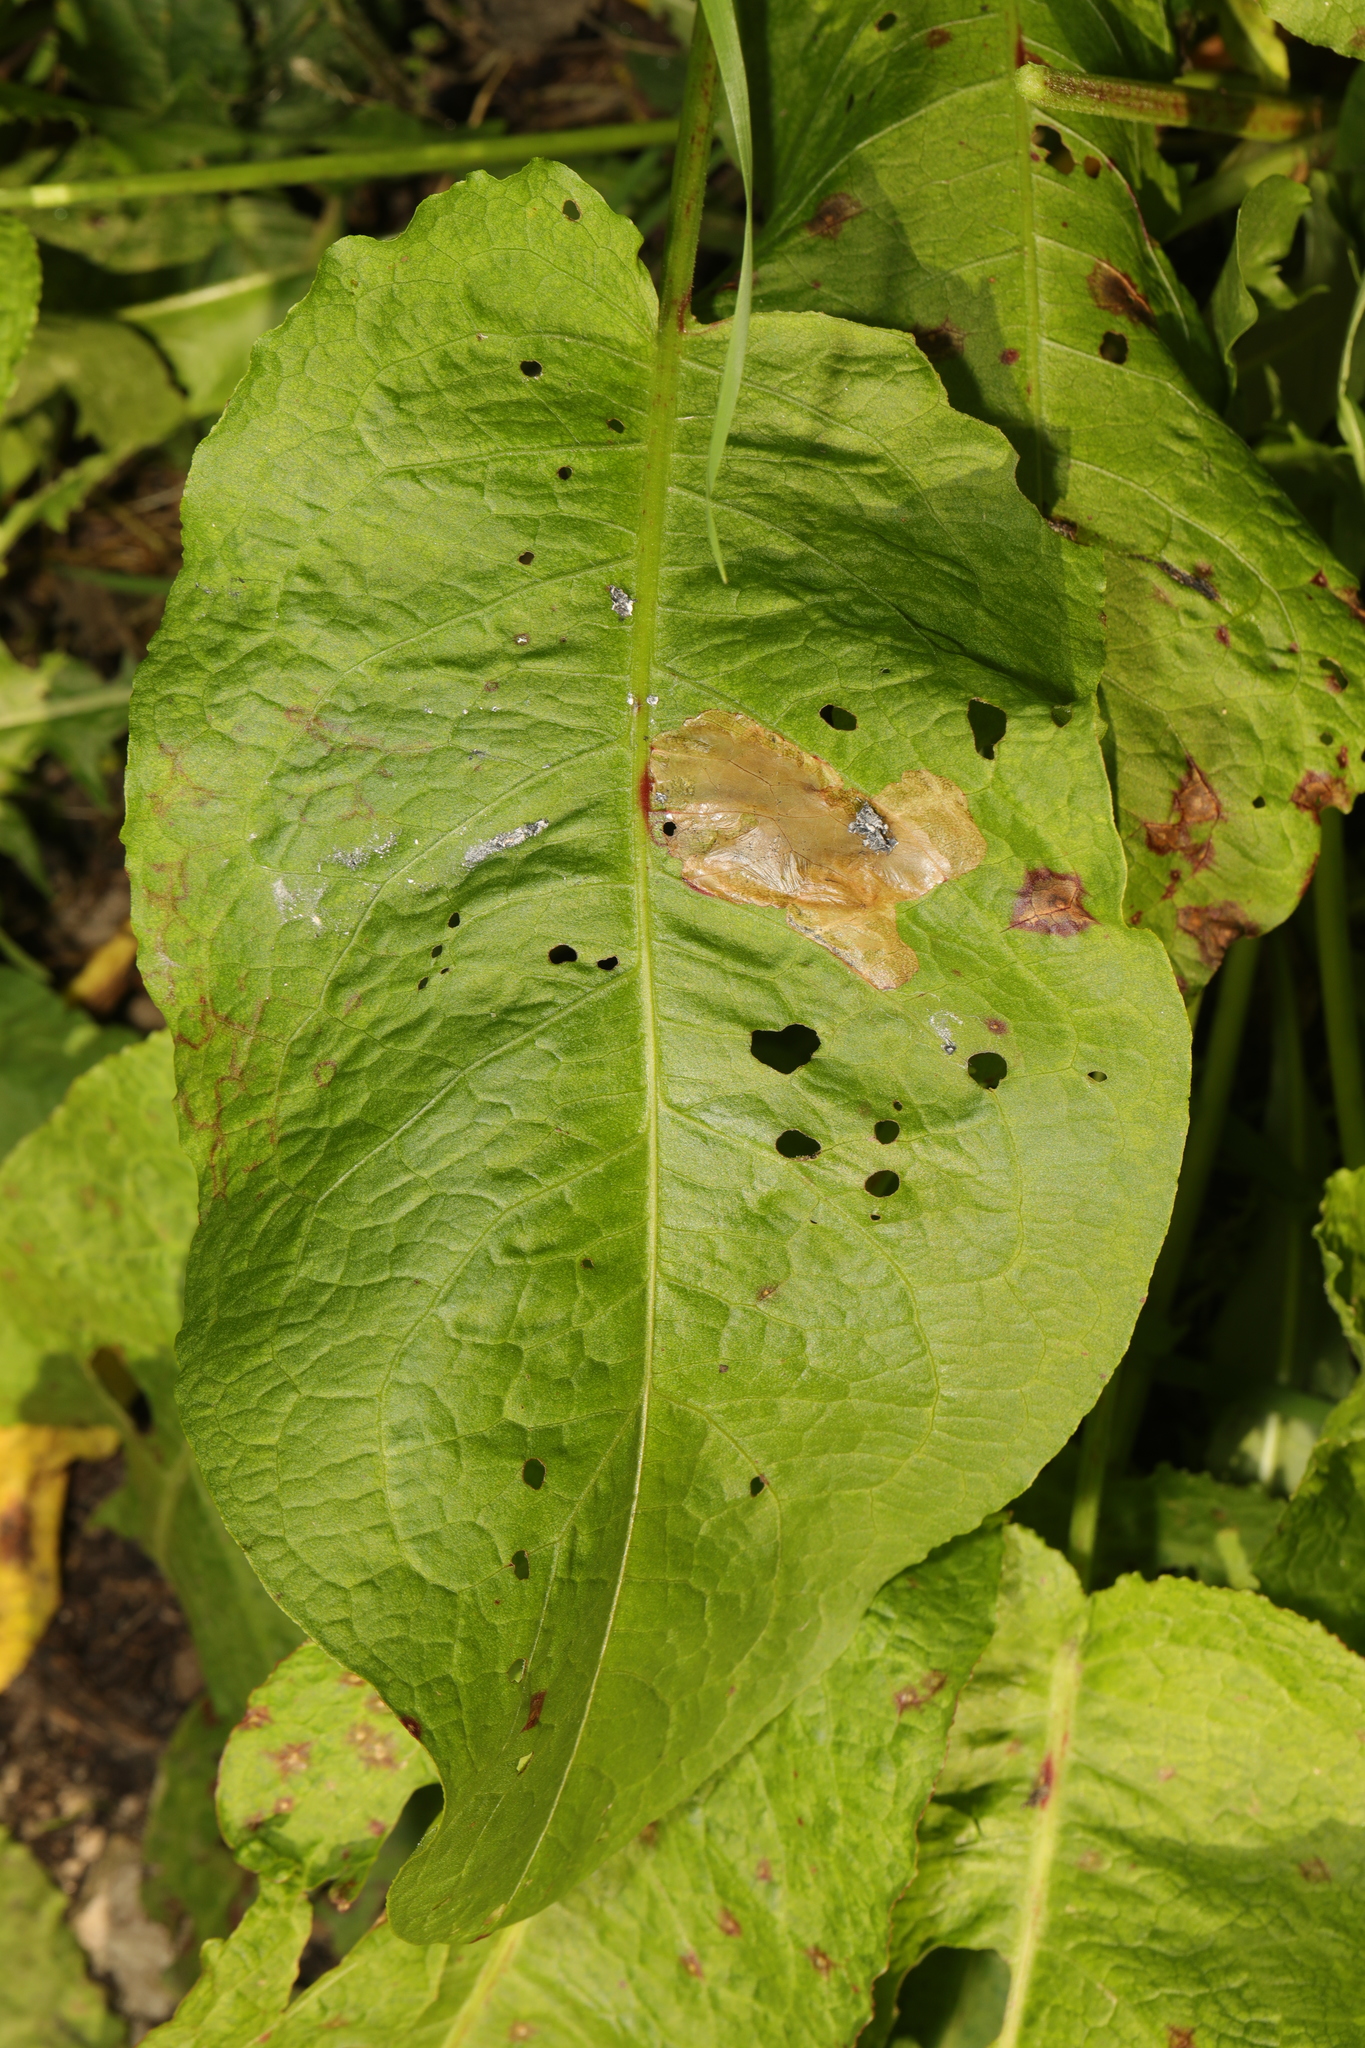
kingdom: Plantae
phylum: Tracheophyta
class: Magnoliopsida
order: Caryophyllales
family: Polygonaceae
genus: Rumex
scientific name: Rumex obtusifolius
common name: Bitter dock
